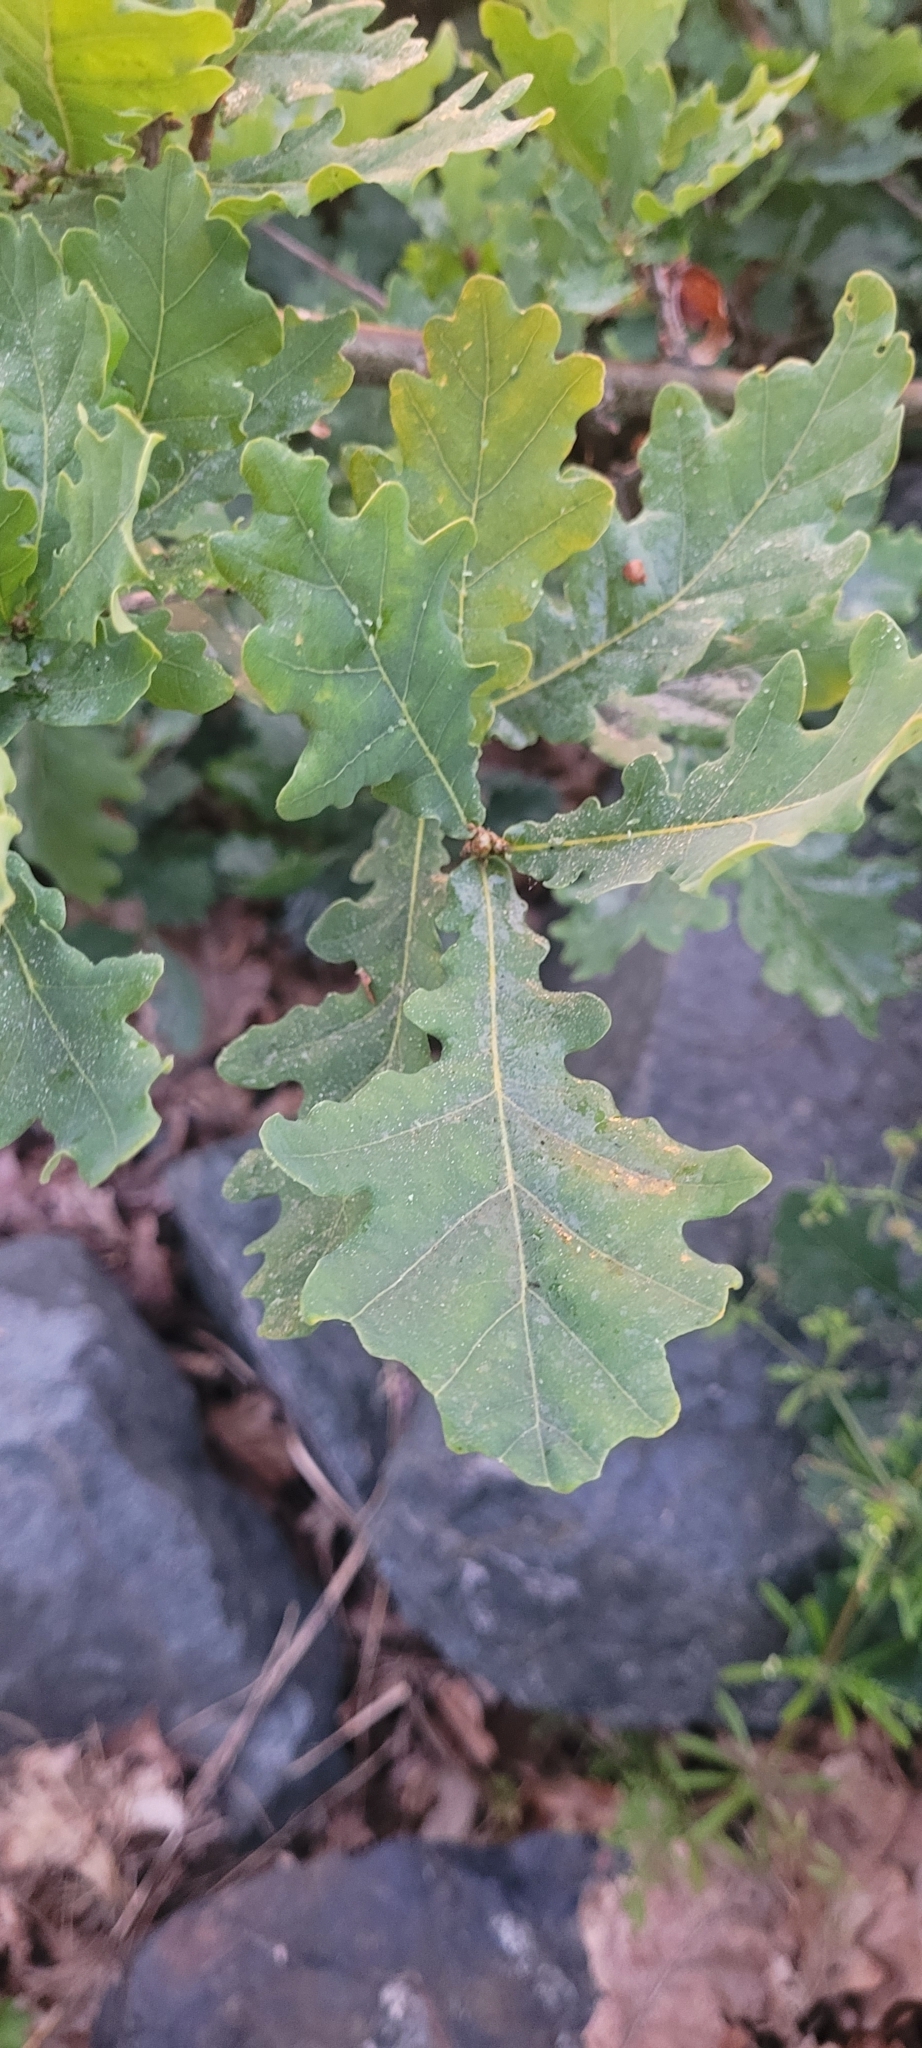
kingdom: Plantae
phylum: Tracheophyta
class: Magnoliopsida
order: Fagales
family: Fagaceae
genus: Quercus
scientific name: Quercus robur
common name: Pedunculate oak
